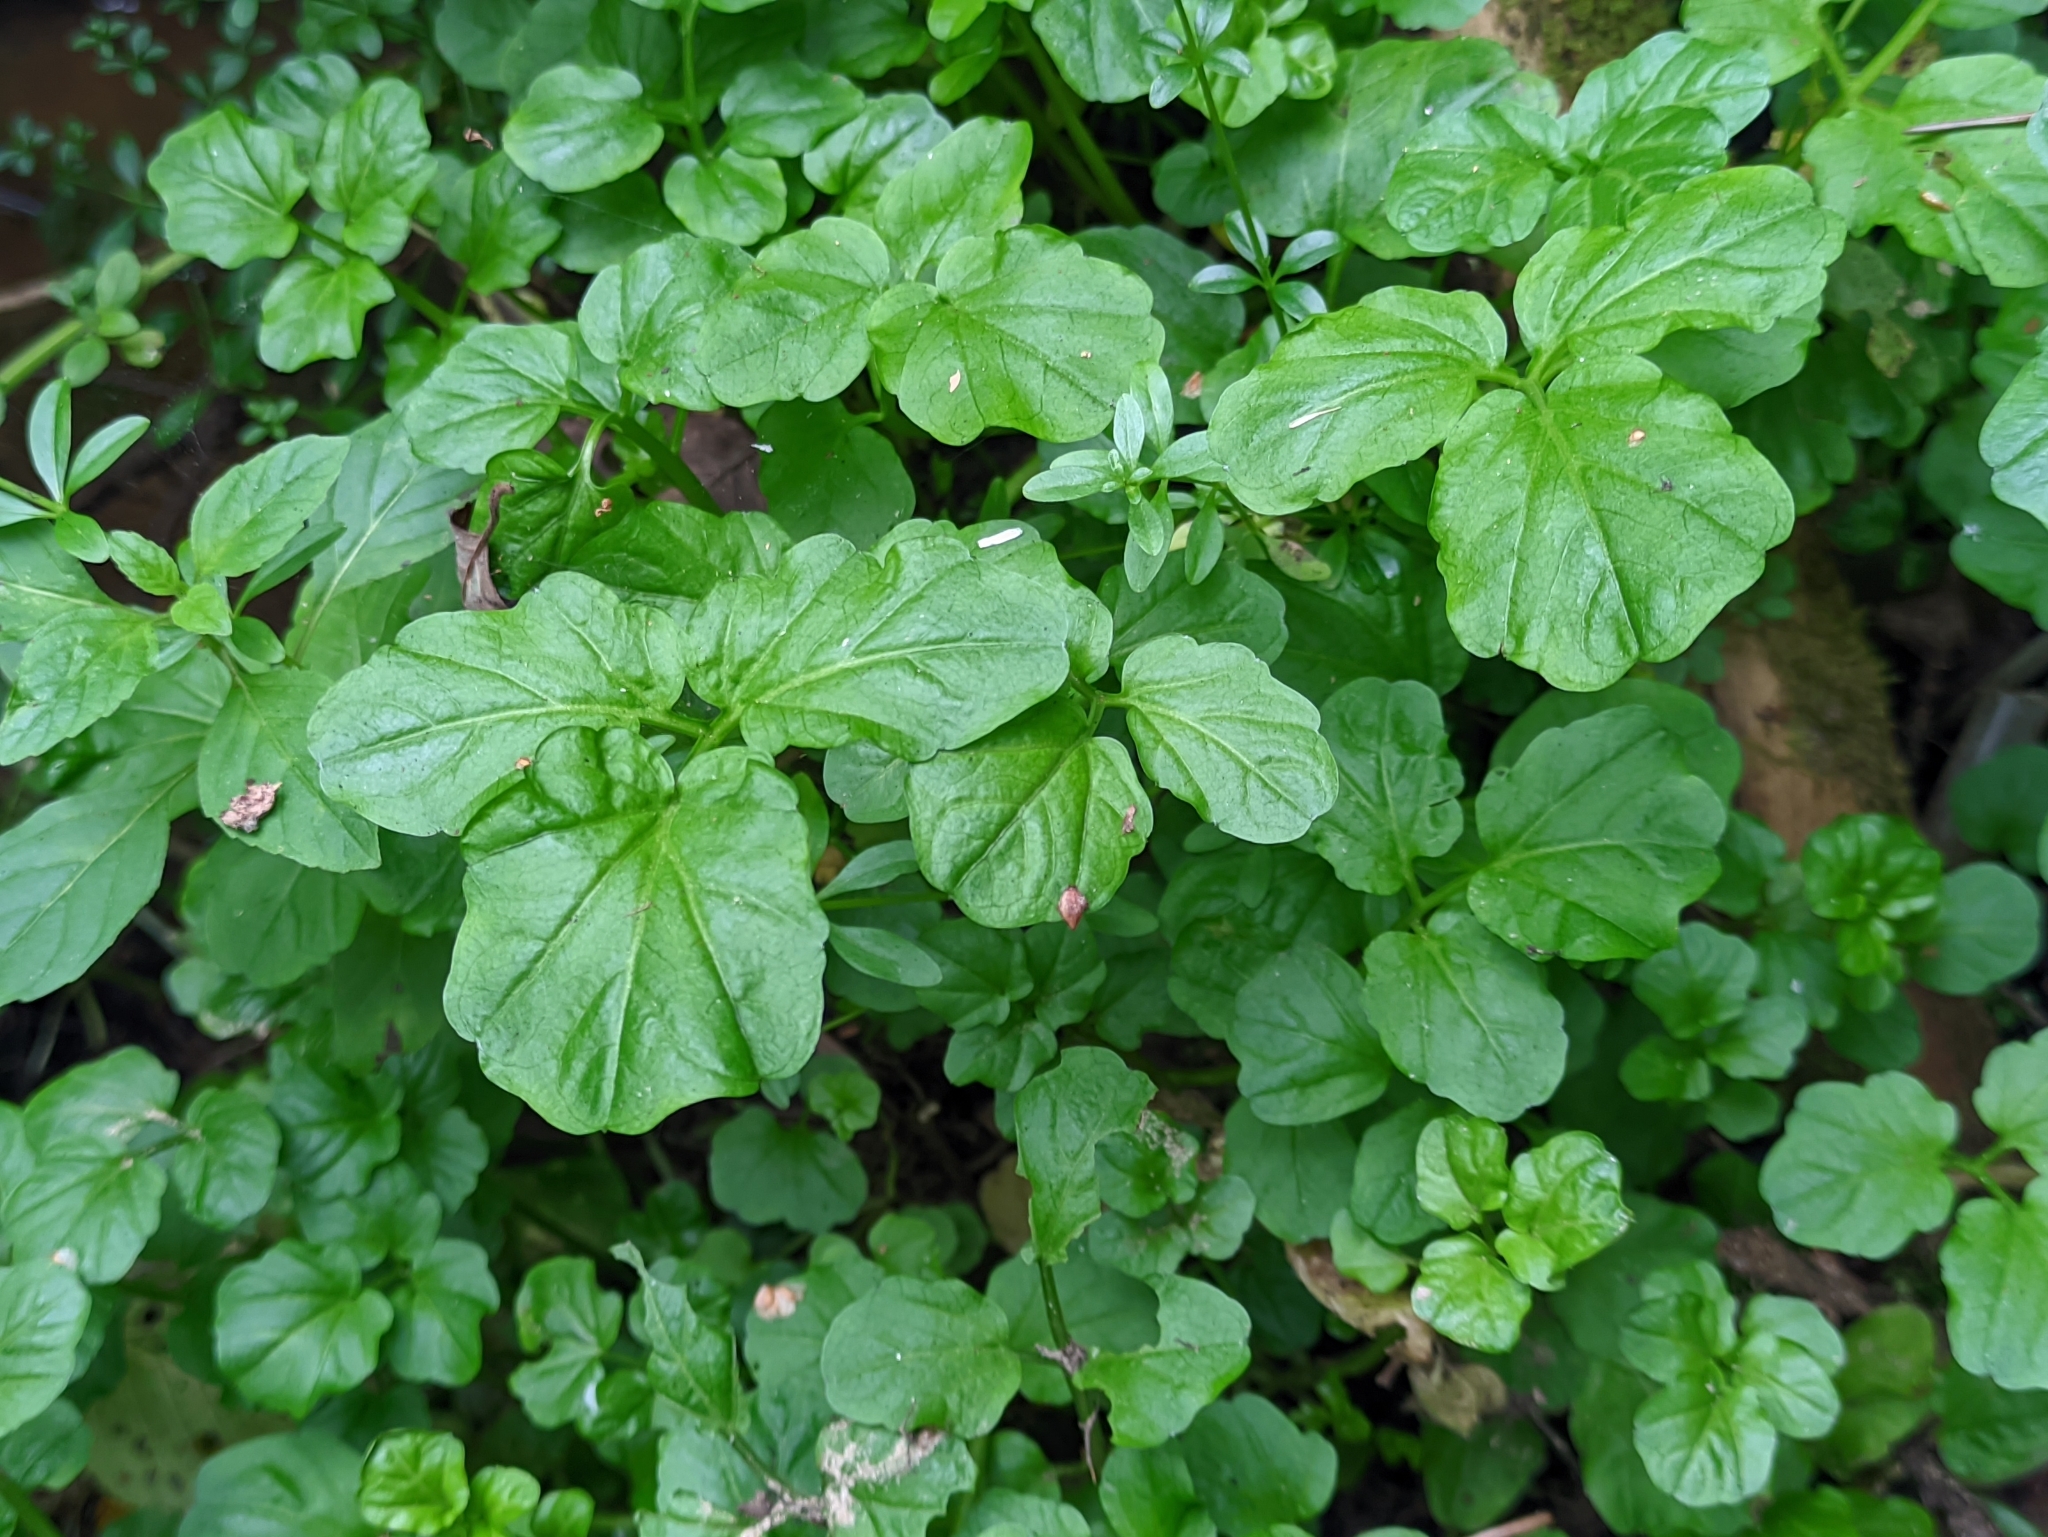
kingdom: Plantae
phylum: Tracheophyta
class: Magnoliopsida
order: Brassicales
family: Brassicaceae
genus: Cardamine
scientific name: Cardamine amara
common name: Large bitter-cress
